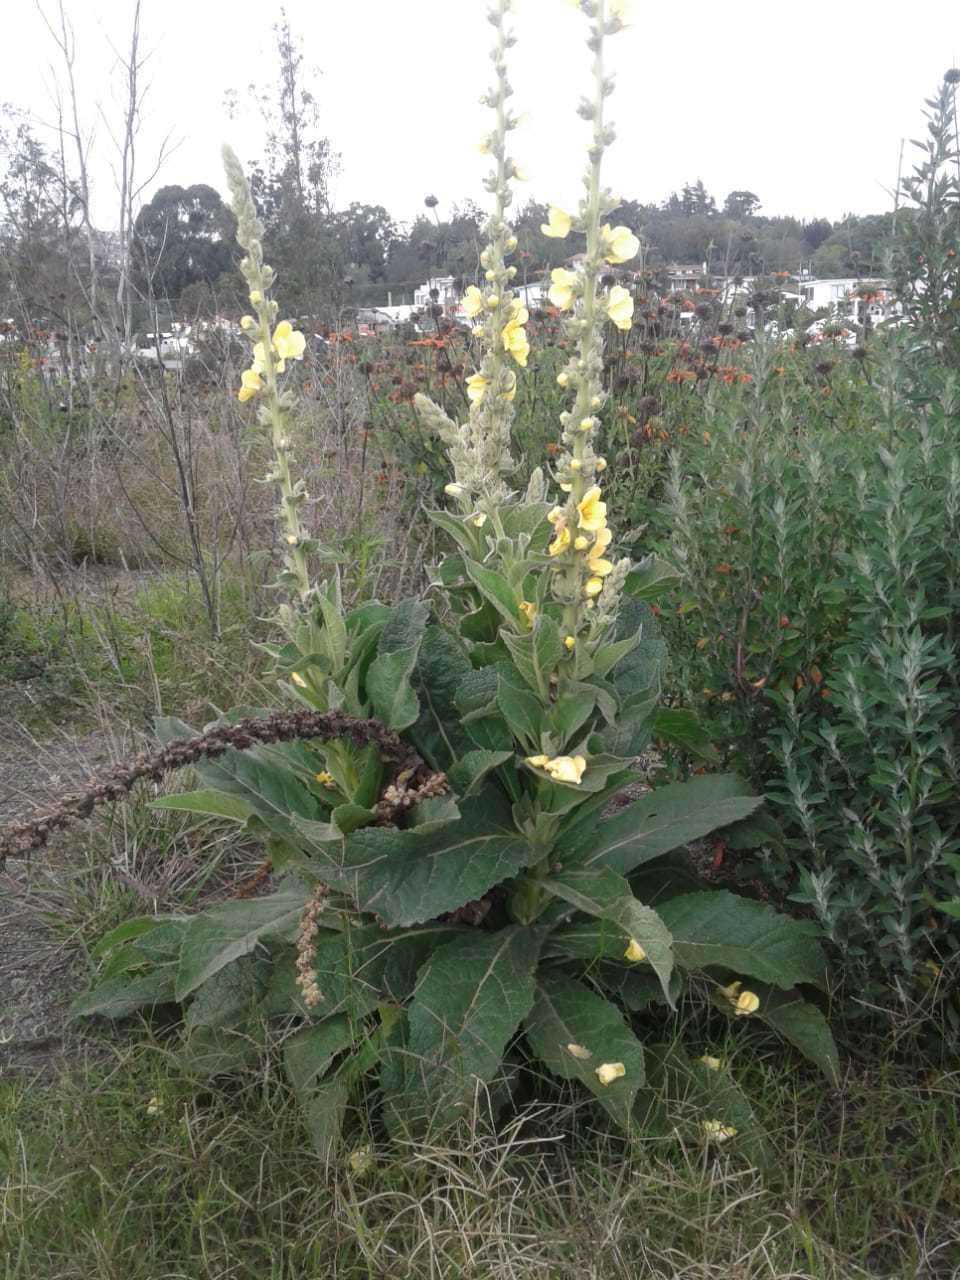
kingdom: Plantae
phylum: Tracheophyta
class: Magnoliopsida
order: Lamiales
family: Scrophulariaceae
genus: Verbascum
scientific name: Verbascum phlomoides
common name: Orange mullein
